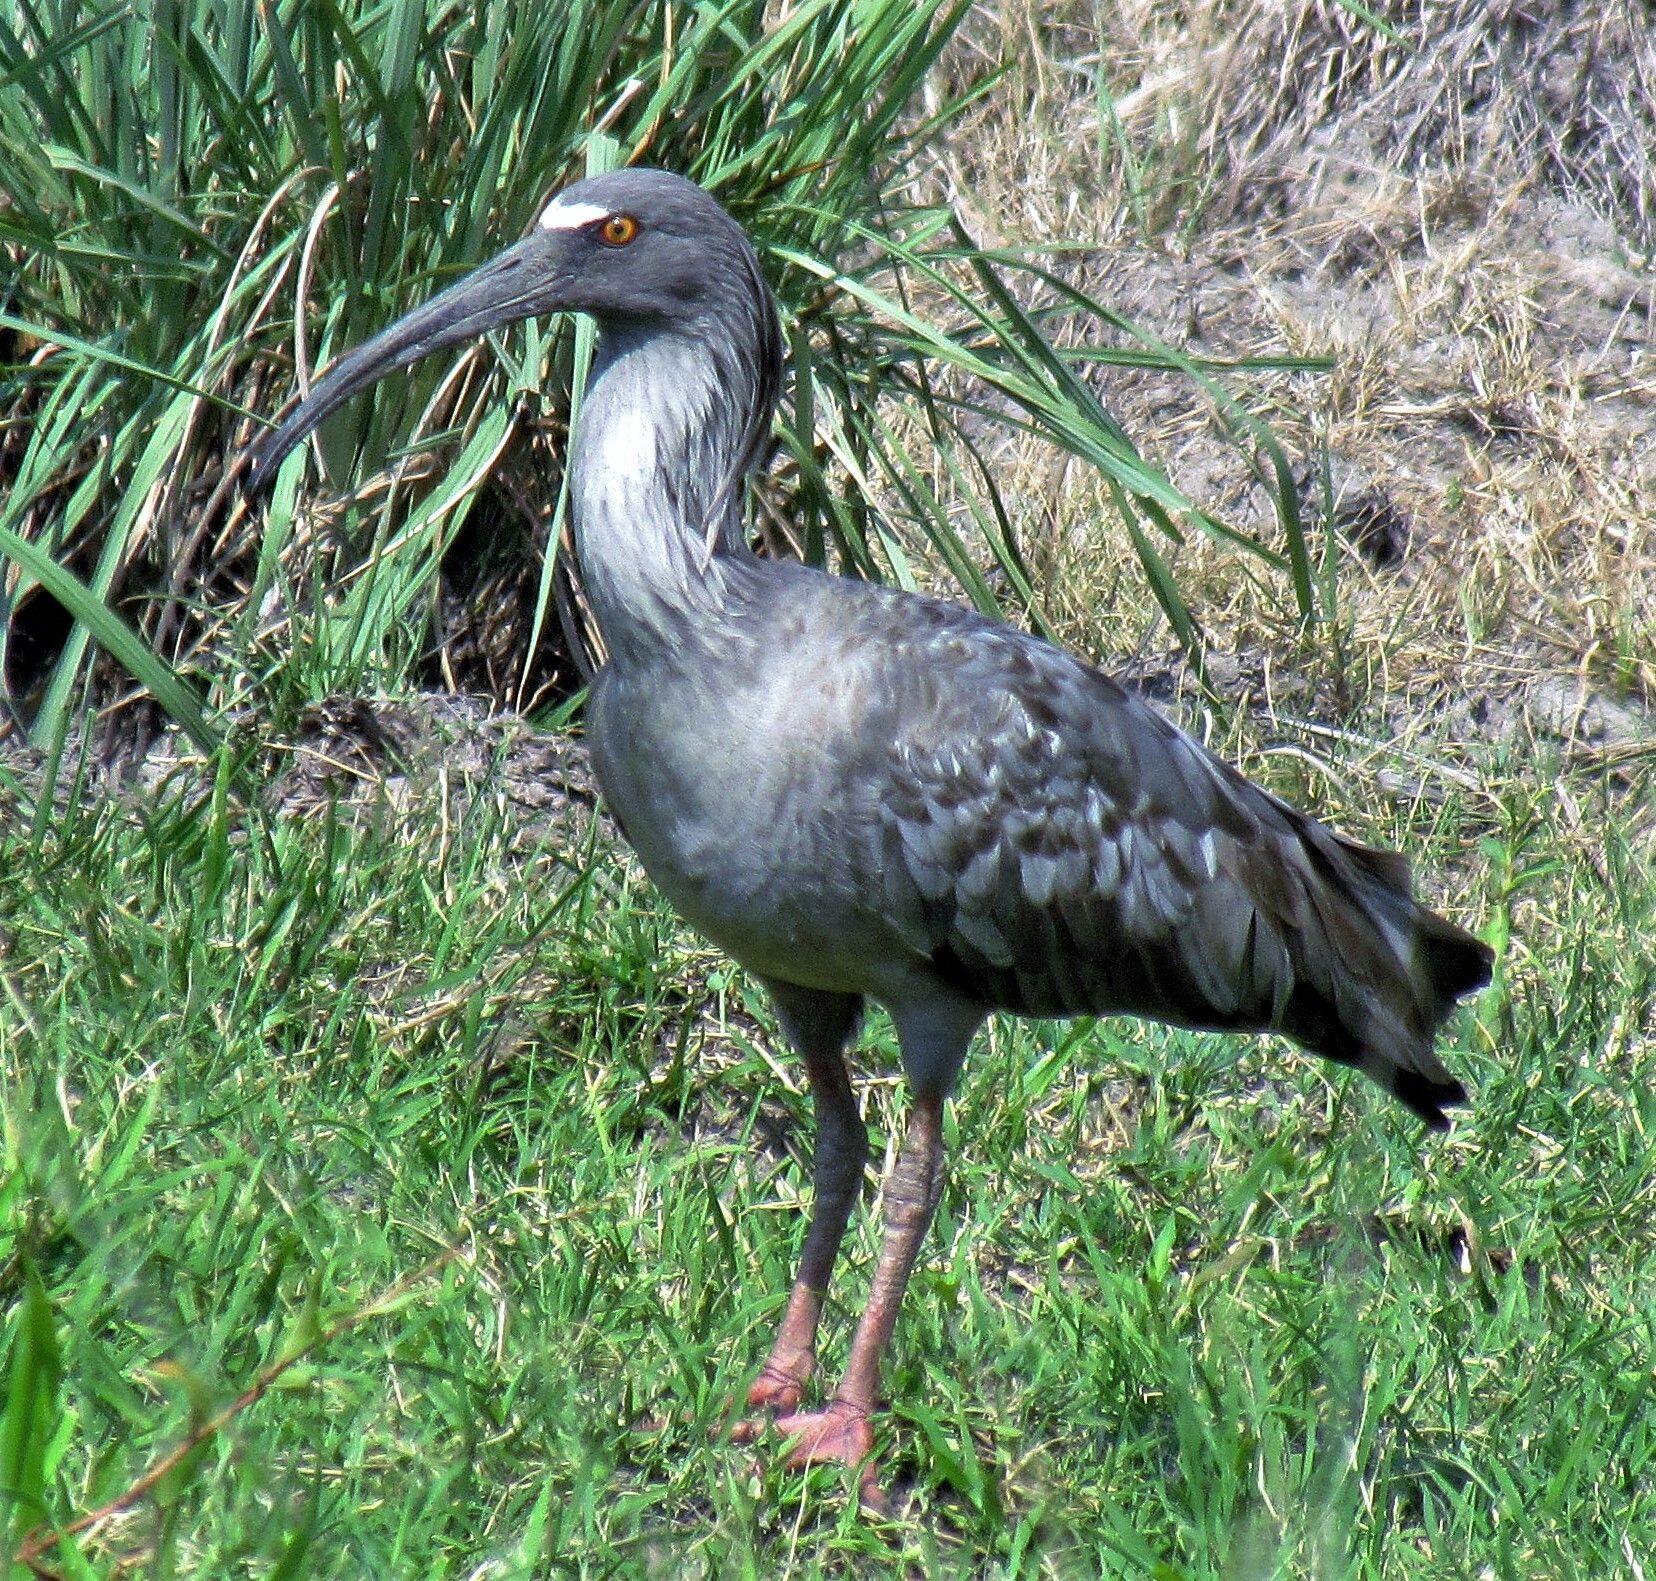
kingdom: Animalia
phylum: Chordata
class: Aves
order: Pelecaniformes
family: Threskiornithidae
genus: Theristicus
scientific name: Theristicus caerulescens
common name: Plumbeous ibis
